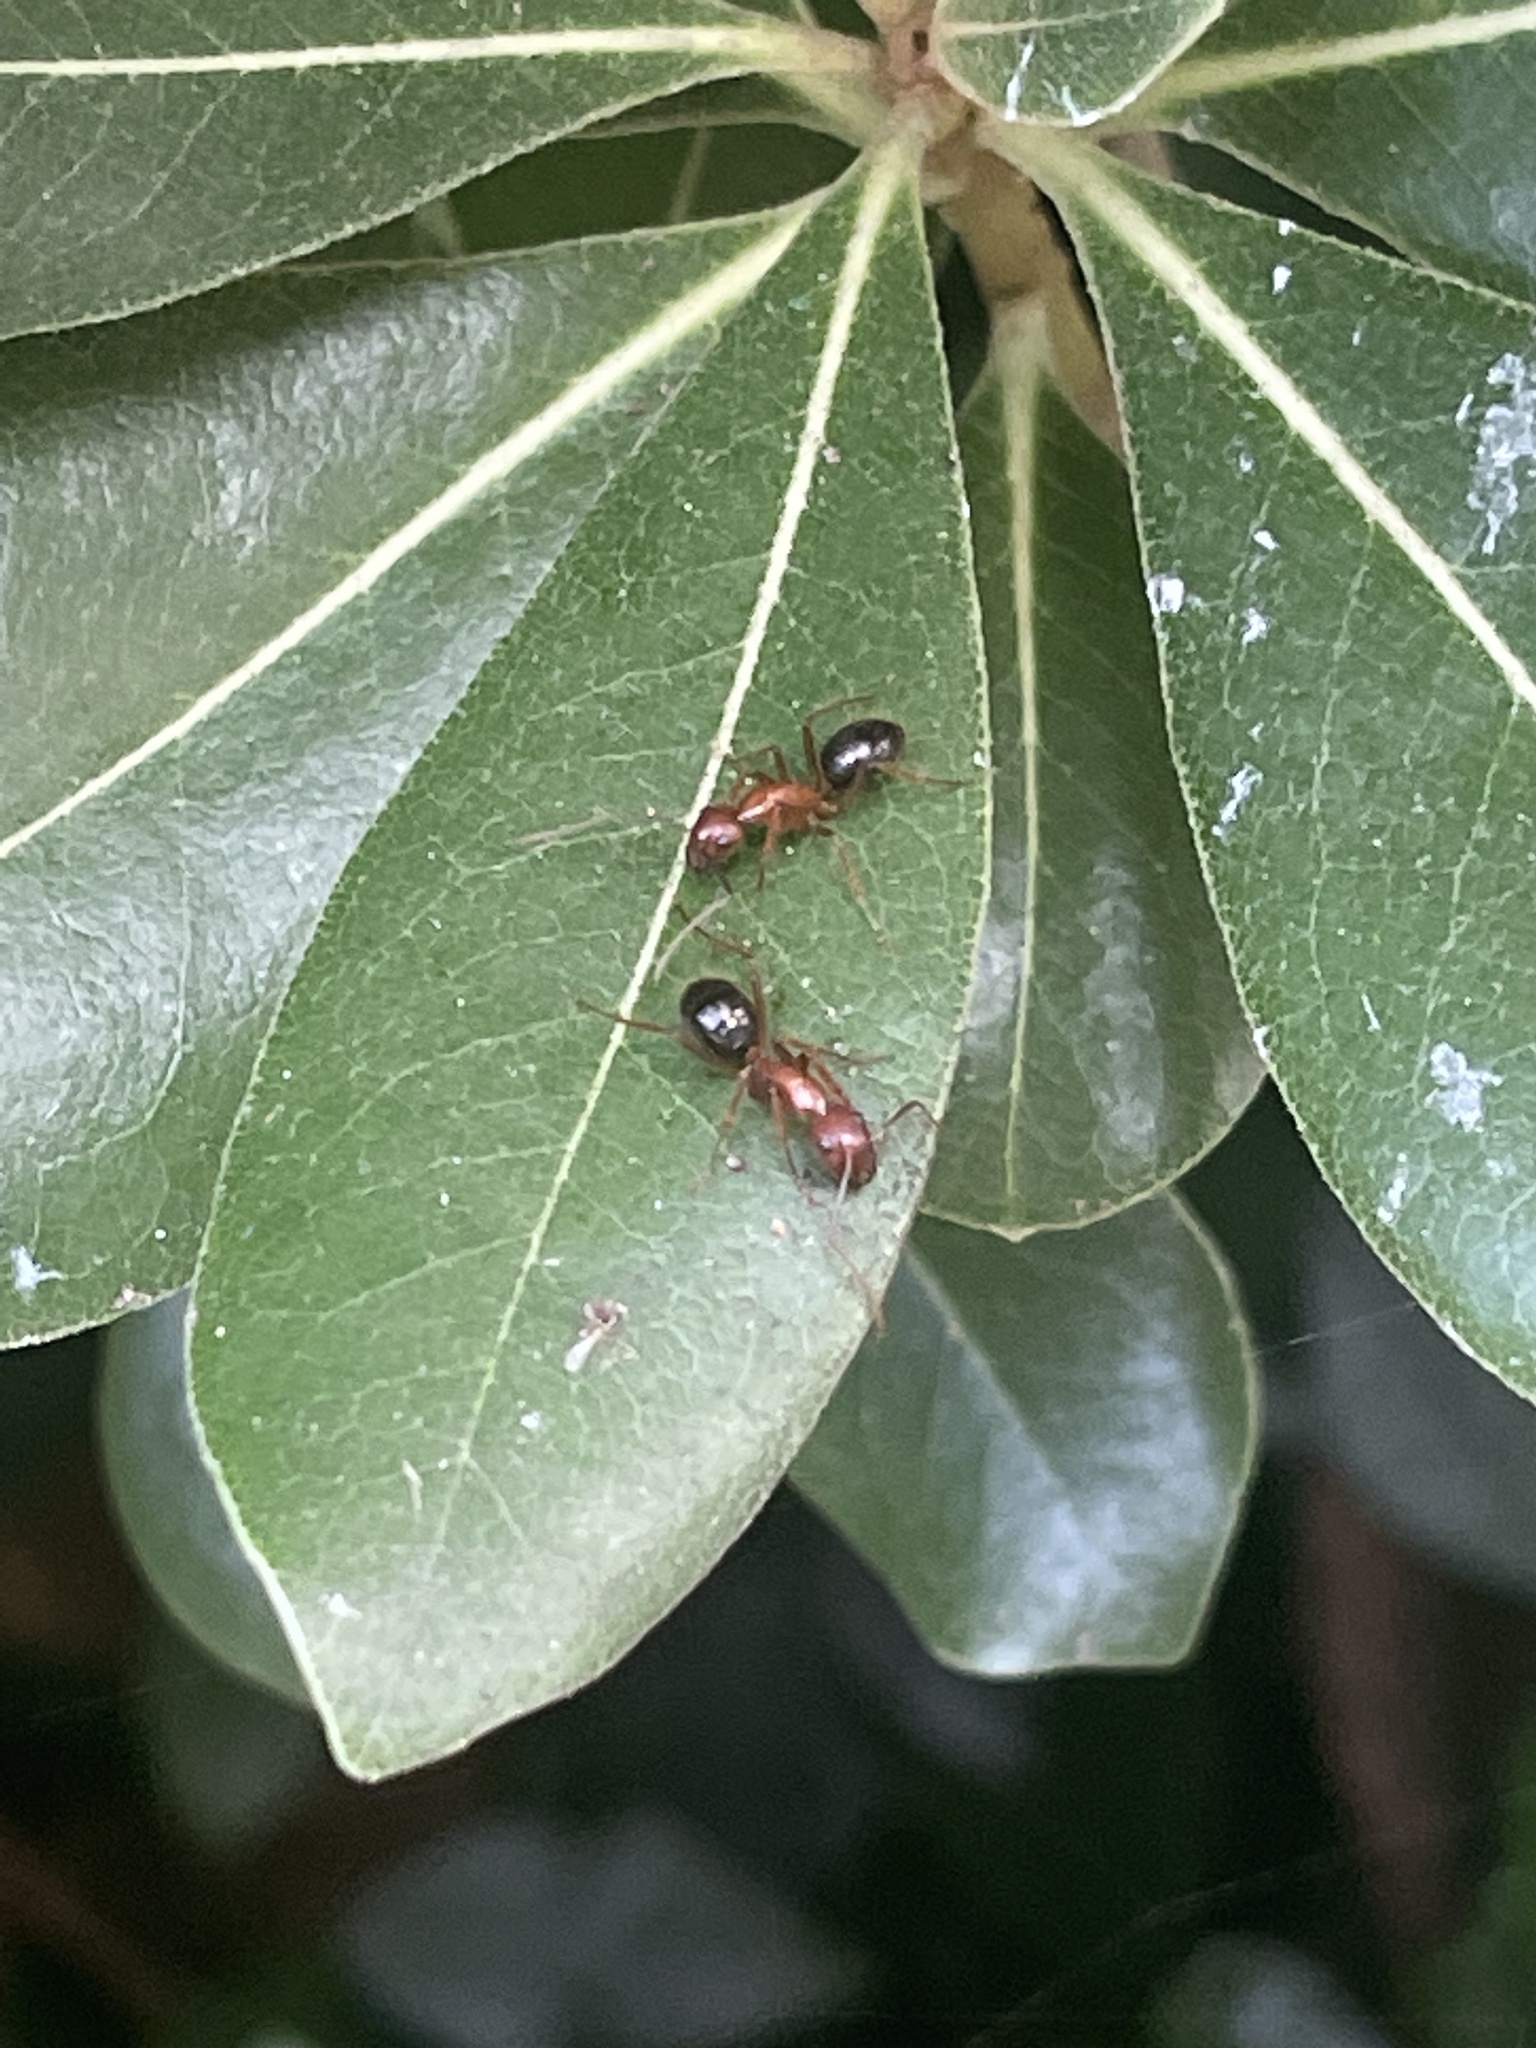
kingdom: Animalia
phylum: Arthropoda
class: Insecta
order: Hymenoptera
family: Formicidae
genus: Camponotus
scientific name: Camponotus floridanus
